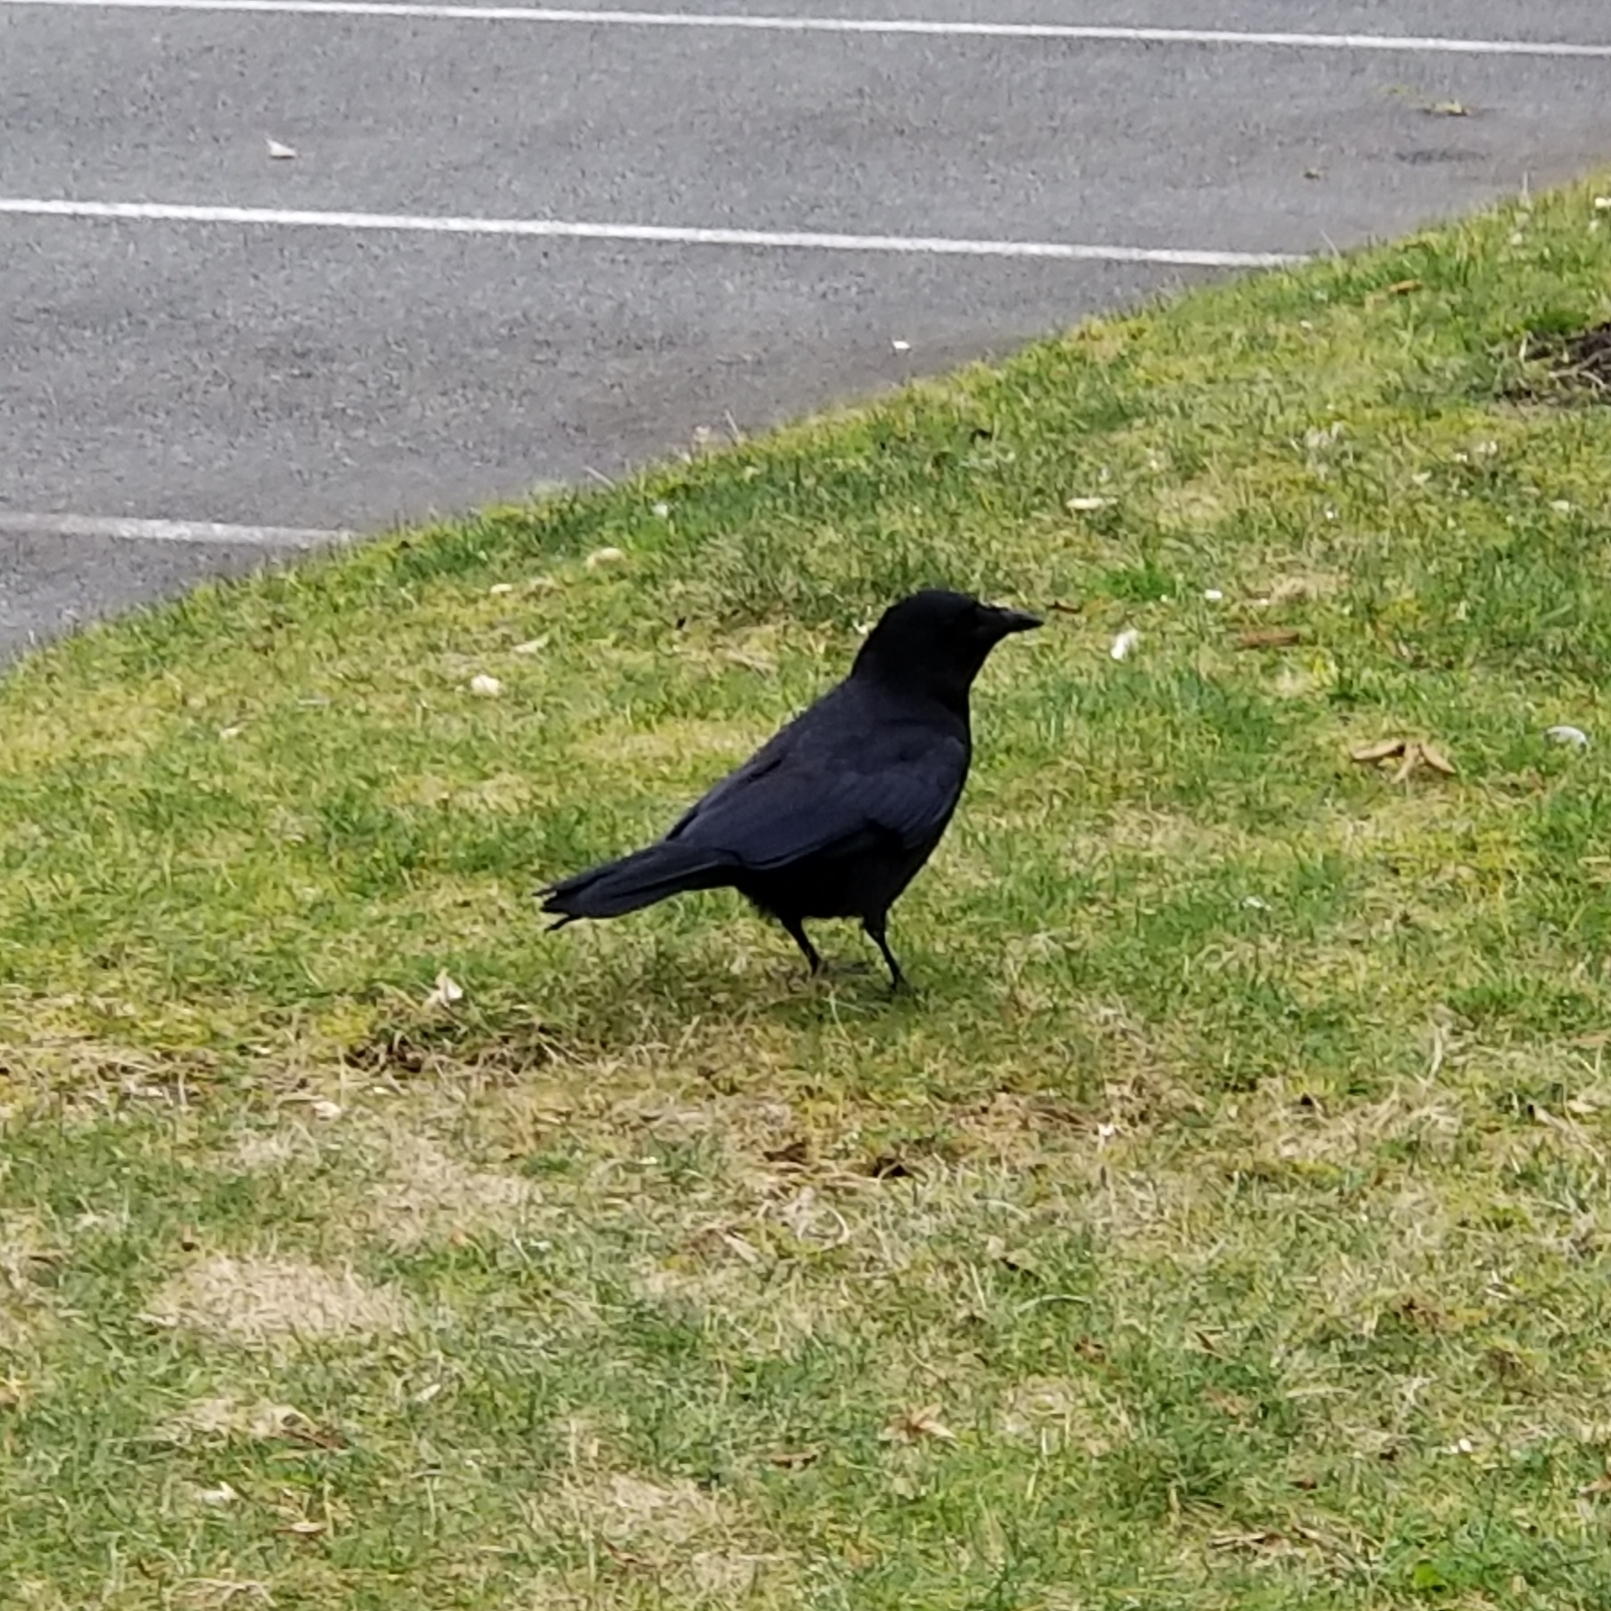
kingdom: Animalia
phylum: Chordata
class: Aves
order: Passeriformes
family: Corvidae
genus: Corvus
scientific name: Corvus brachyrhynchos
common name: American crow
